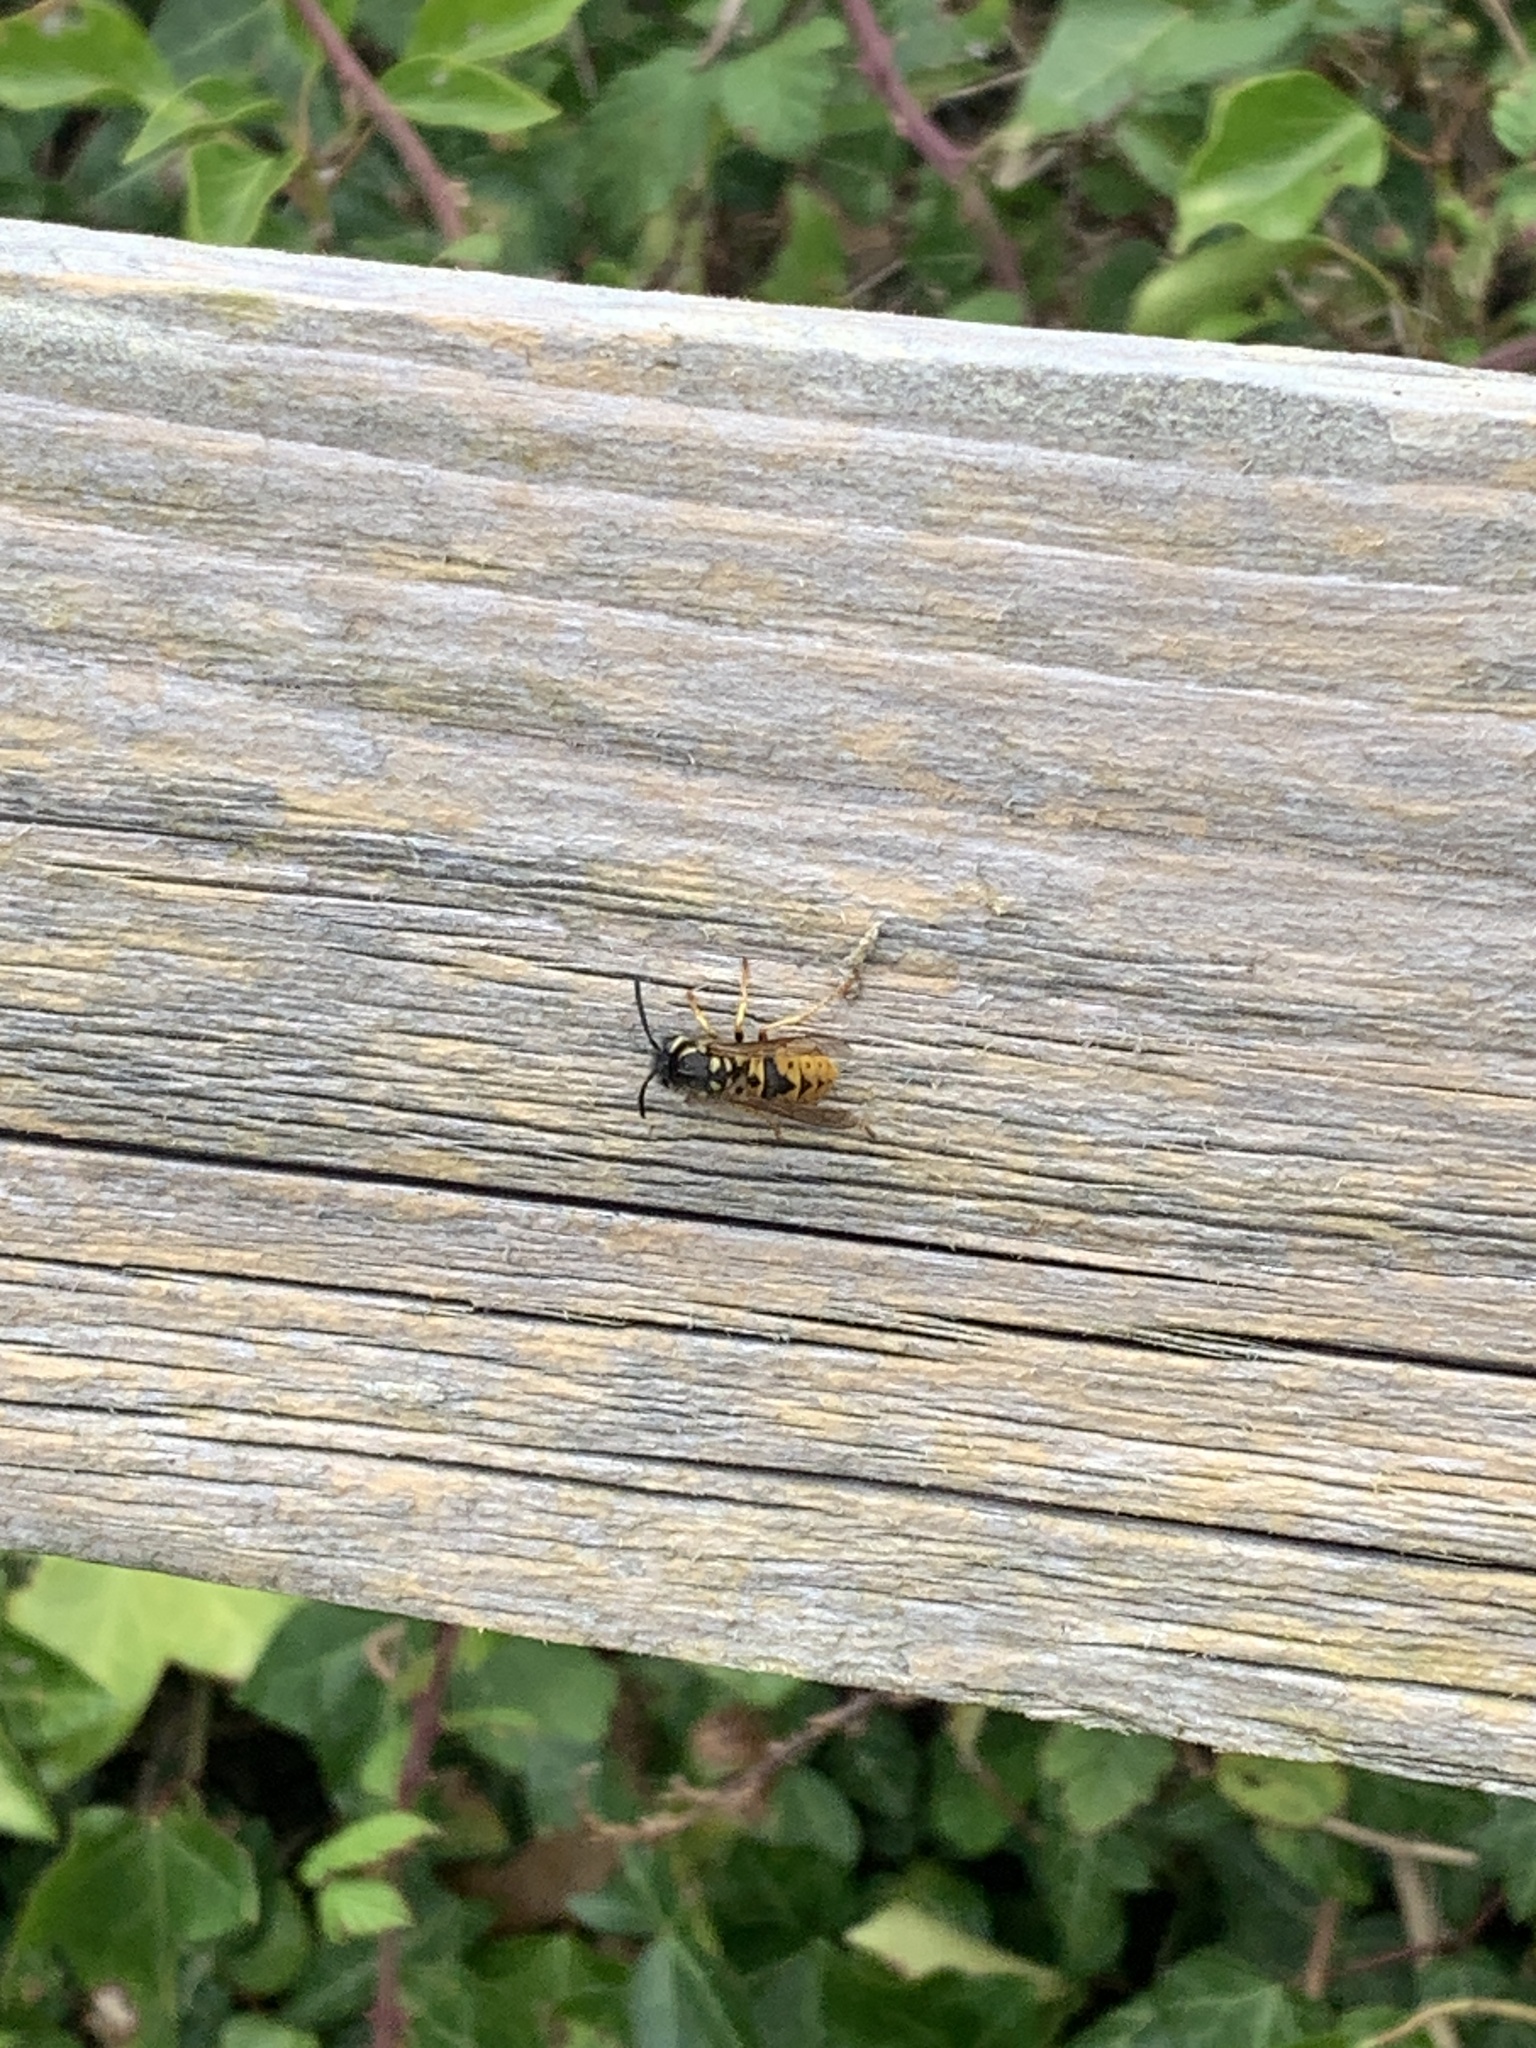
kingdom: Animalia
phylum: Arthropoda
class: Insecta
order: Hymenoptera
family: Vespidae
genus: Vespula
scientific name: Vespula germanica
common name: German wasp
